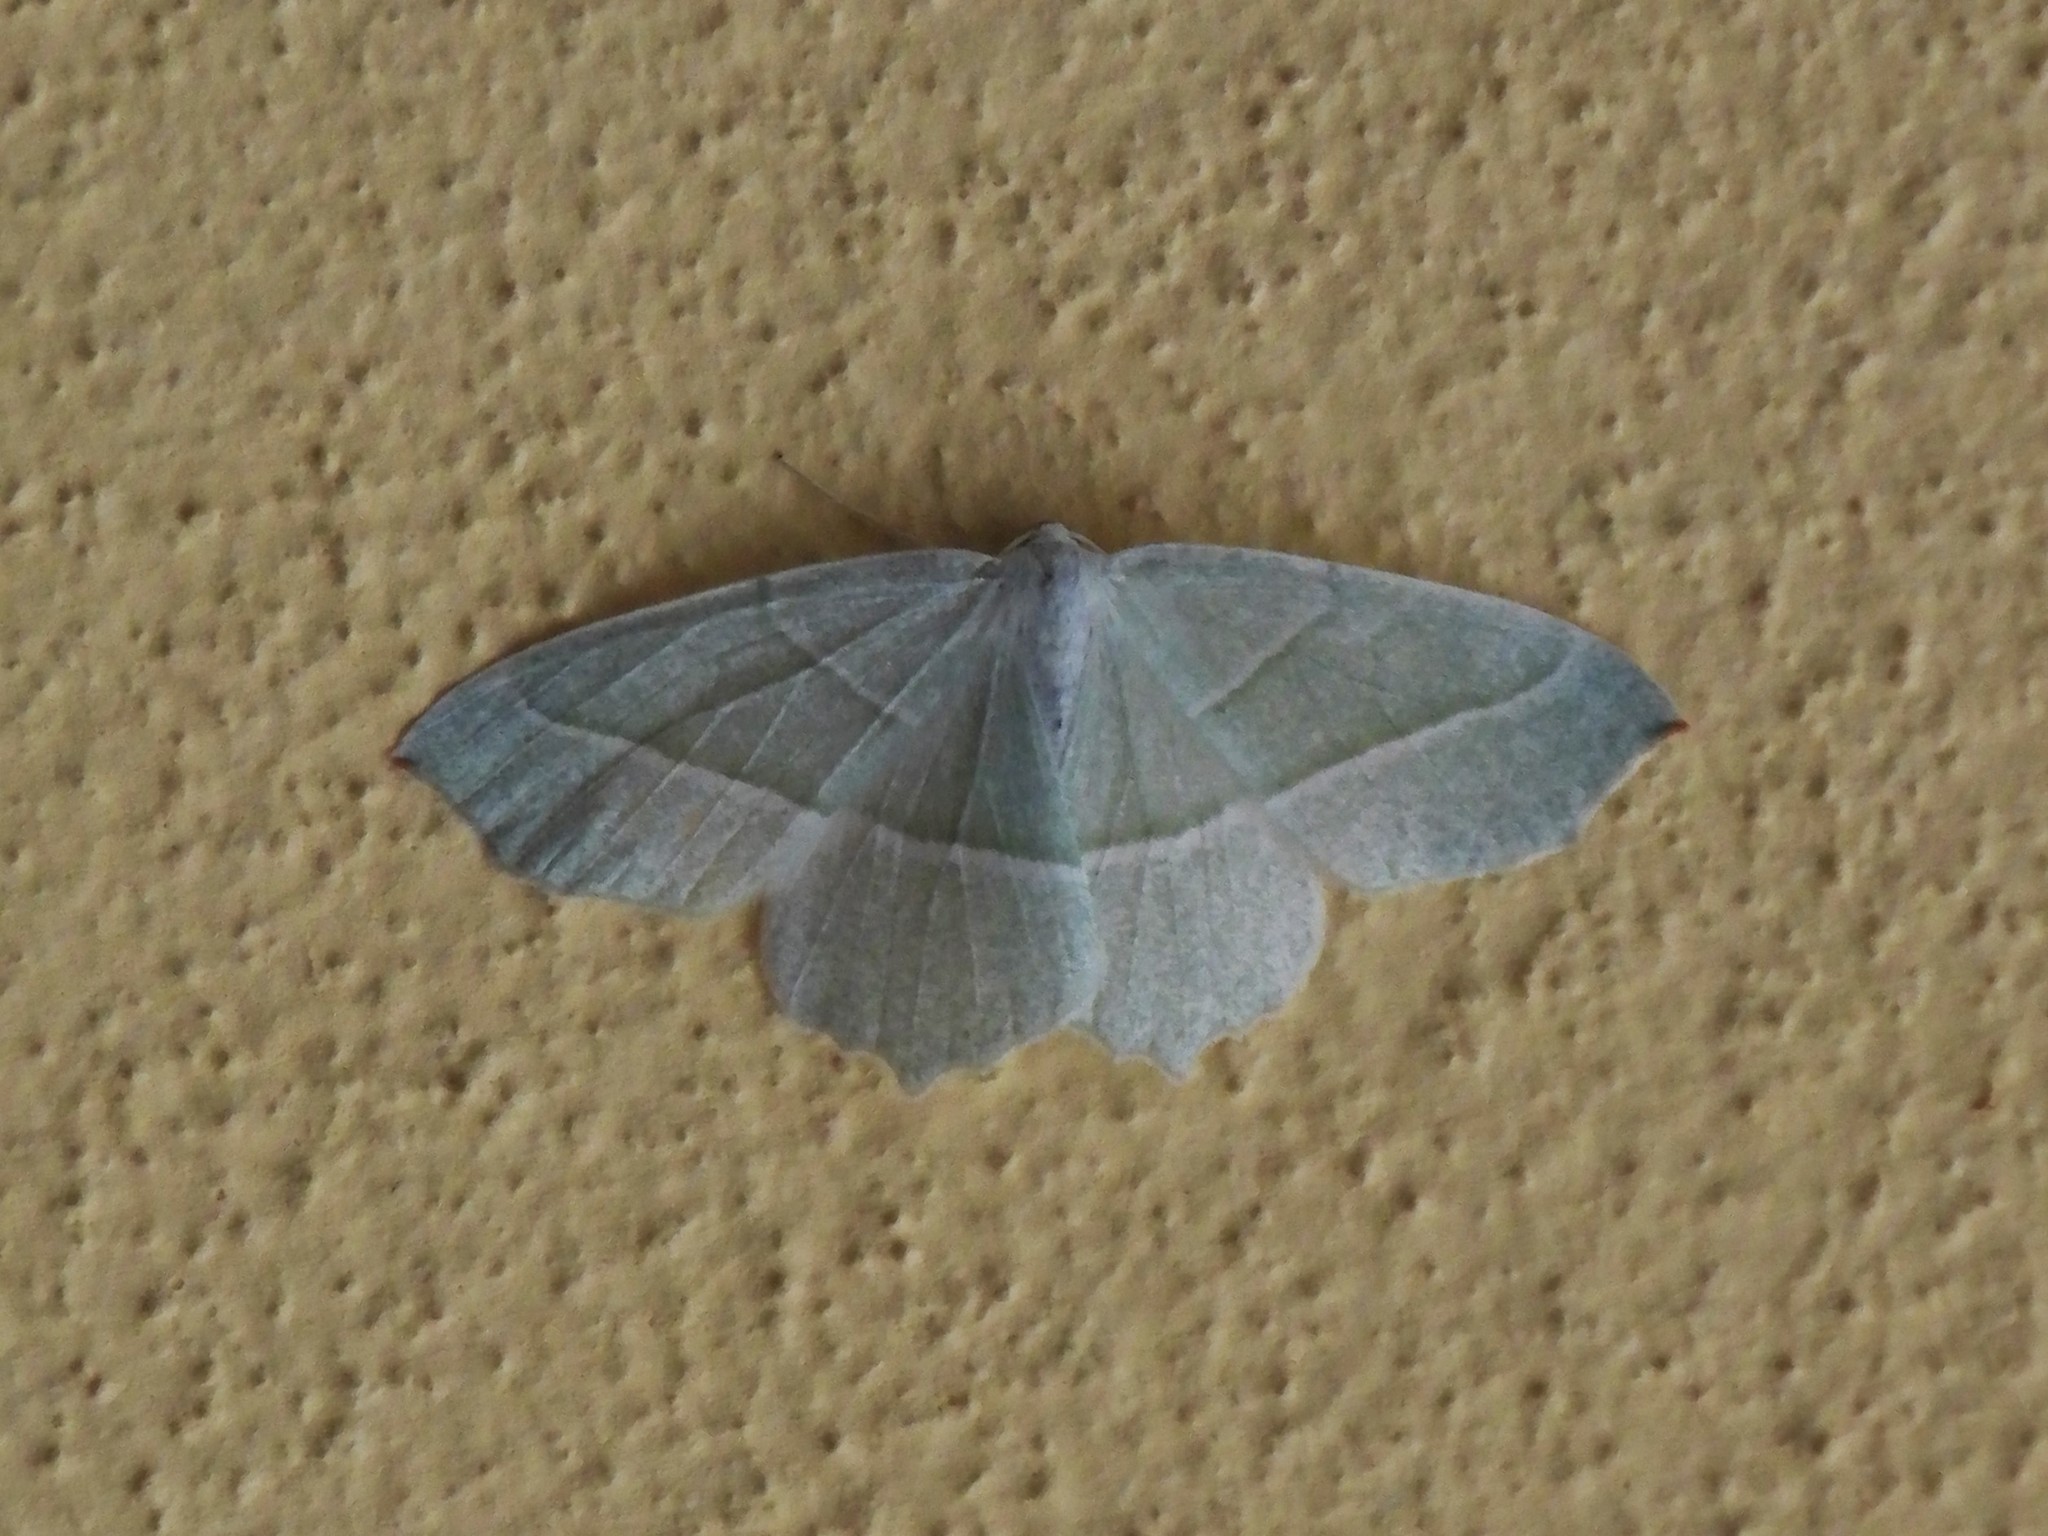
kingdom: Animalia
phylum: Arthropoda
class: Insecta
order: Lepidoptera
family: Geometridae
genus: Campaea
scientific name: Campaea margaritaria
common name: Light emerald
